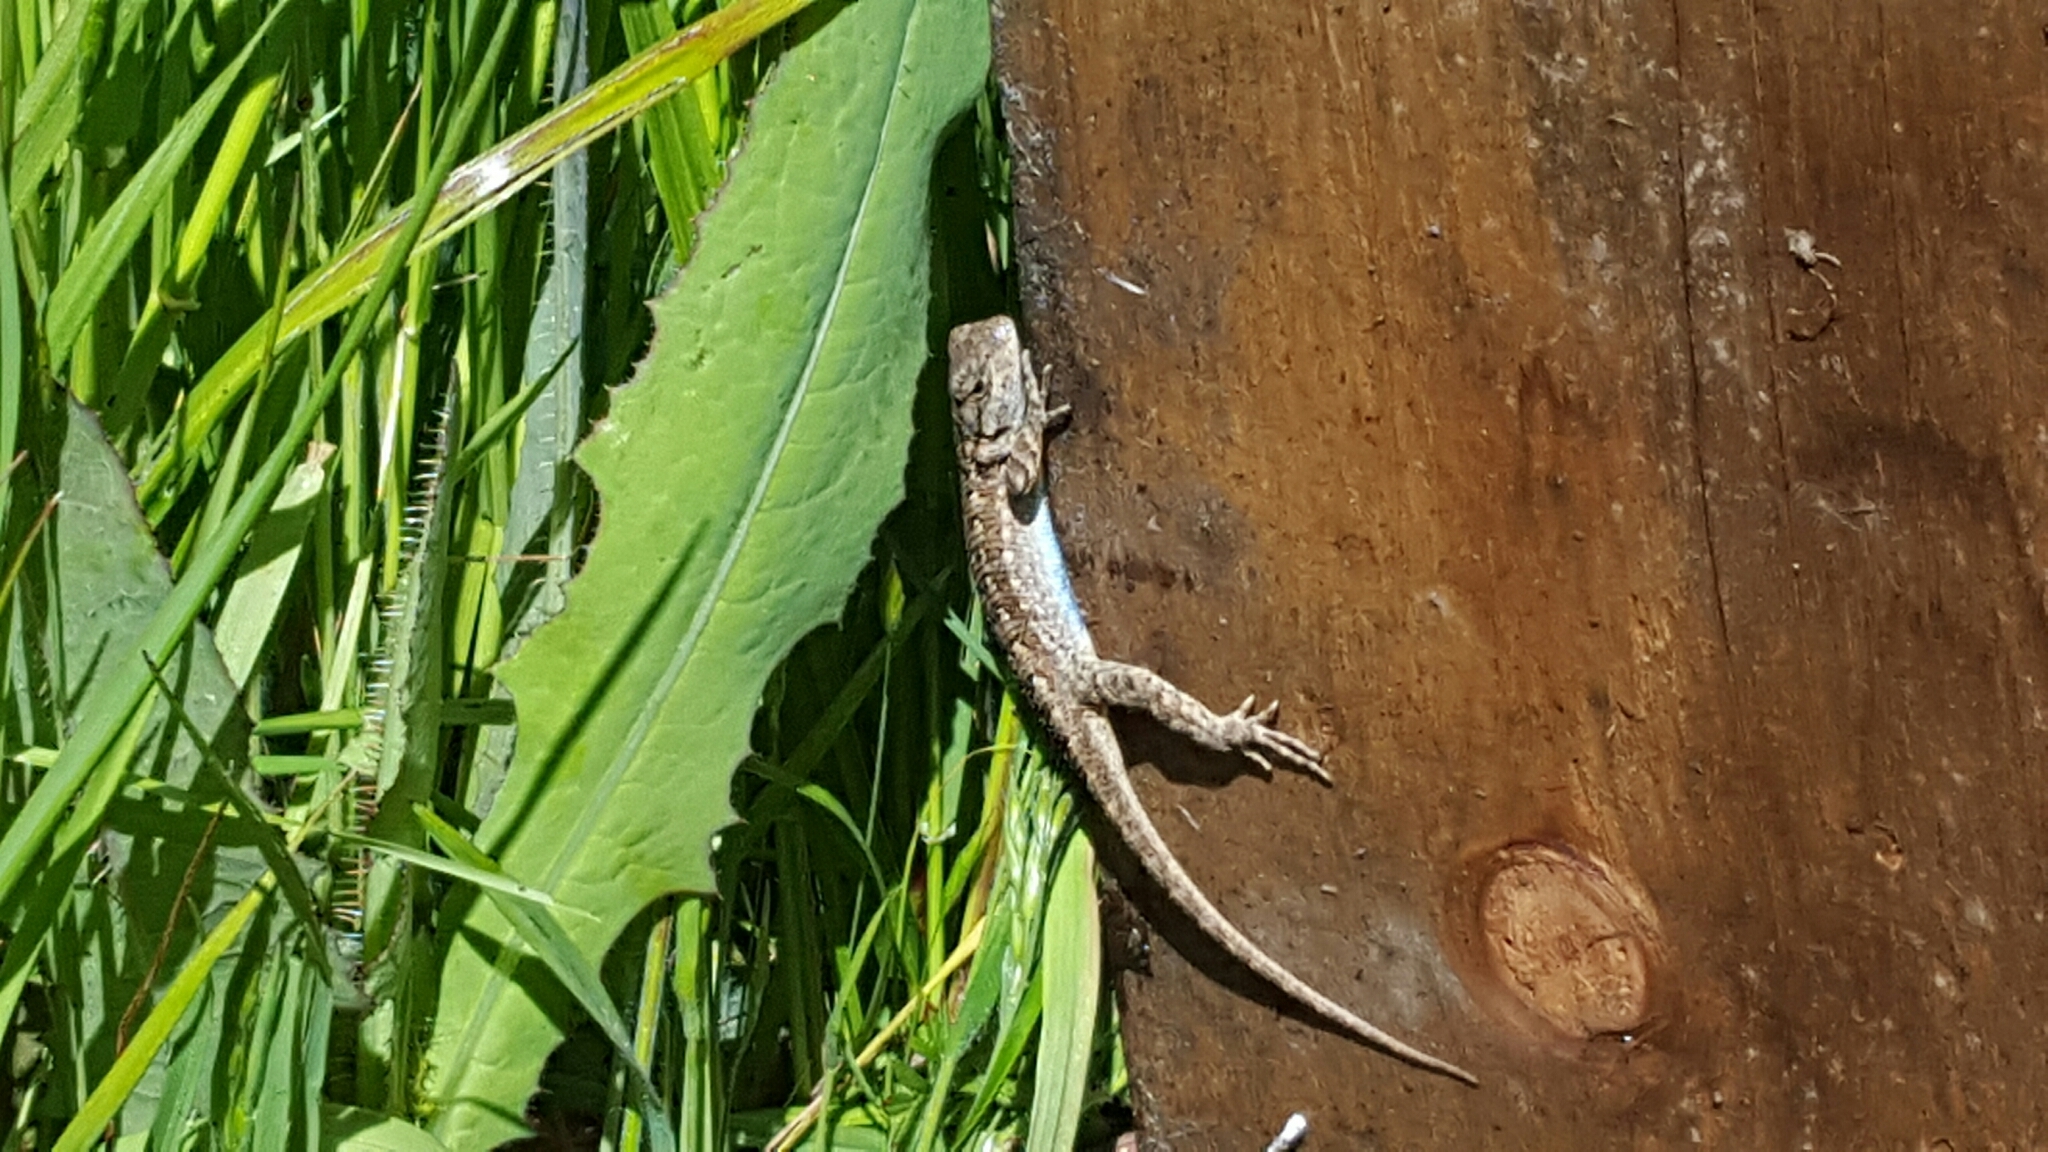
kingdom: Animalia
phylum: Chordata
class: Squamata
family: Phrynosomatidae
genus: Sceloporus
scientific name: Sceloporus occidentalis
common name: Western fence lizard
